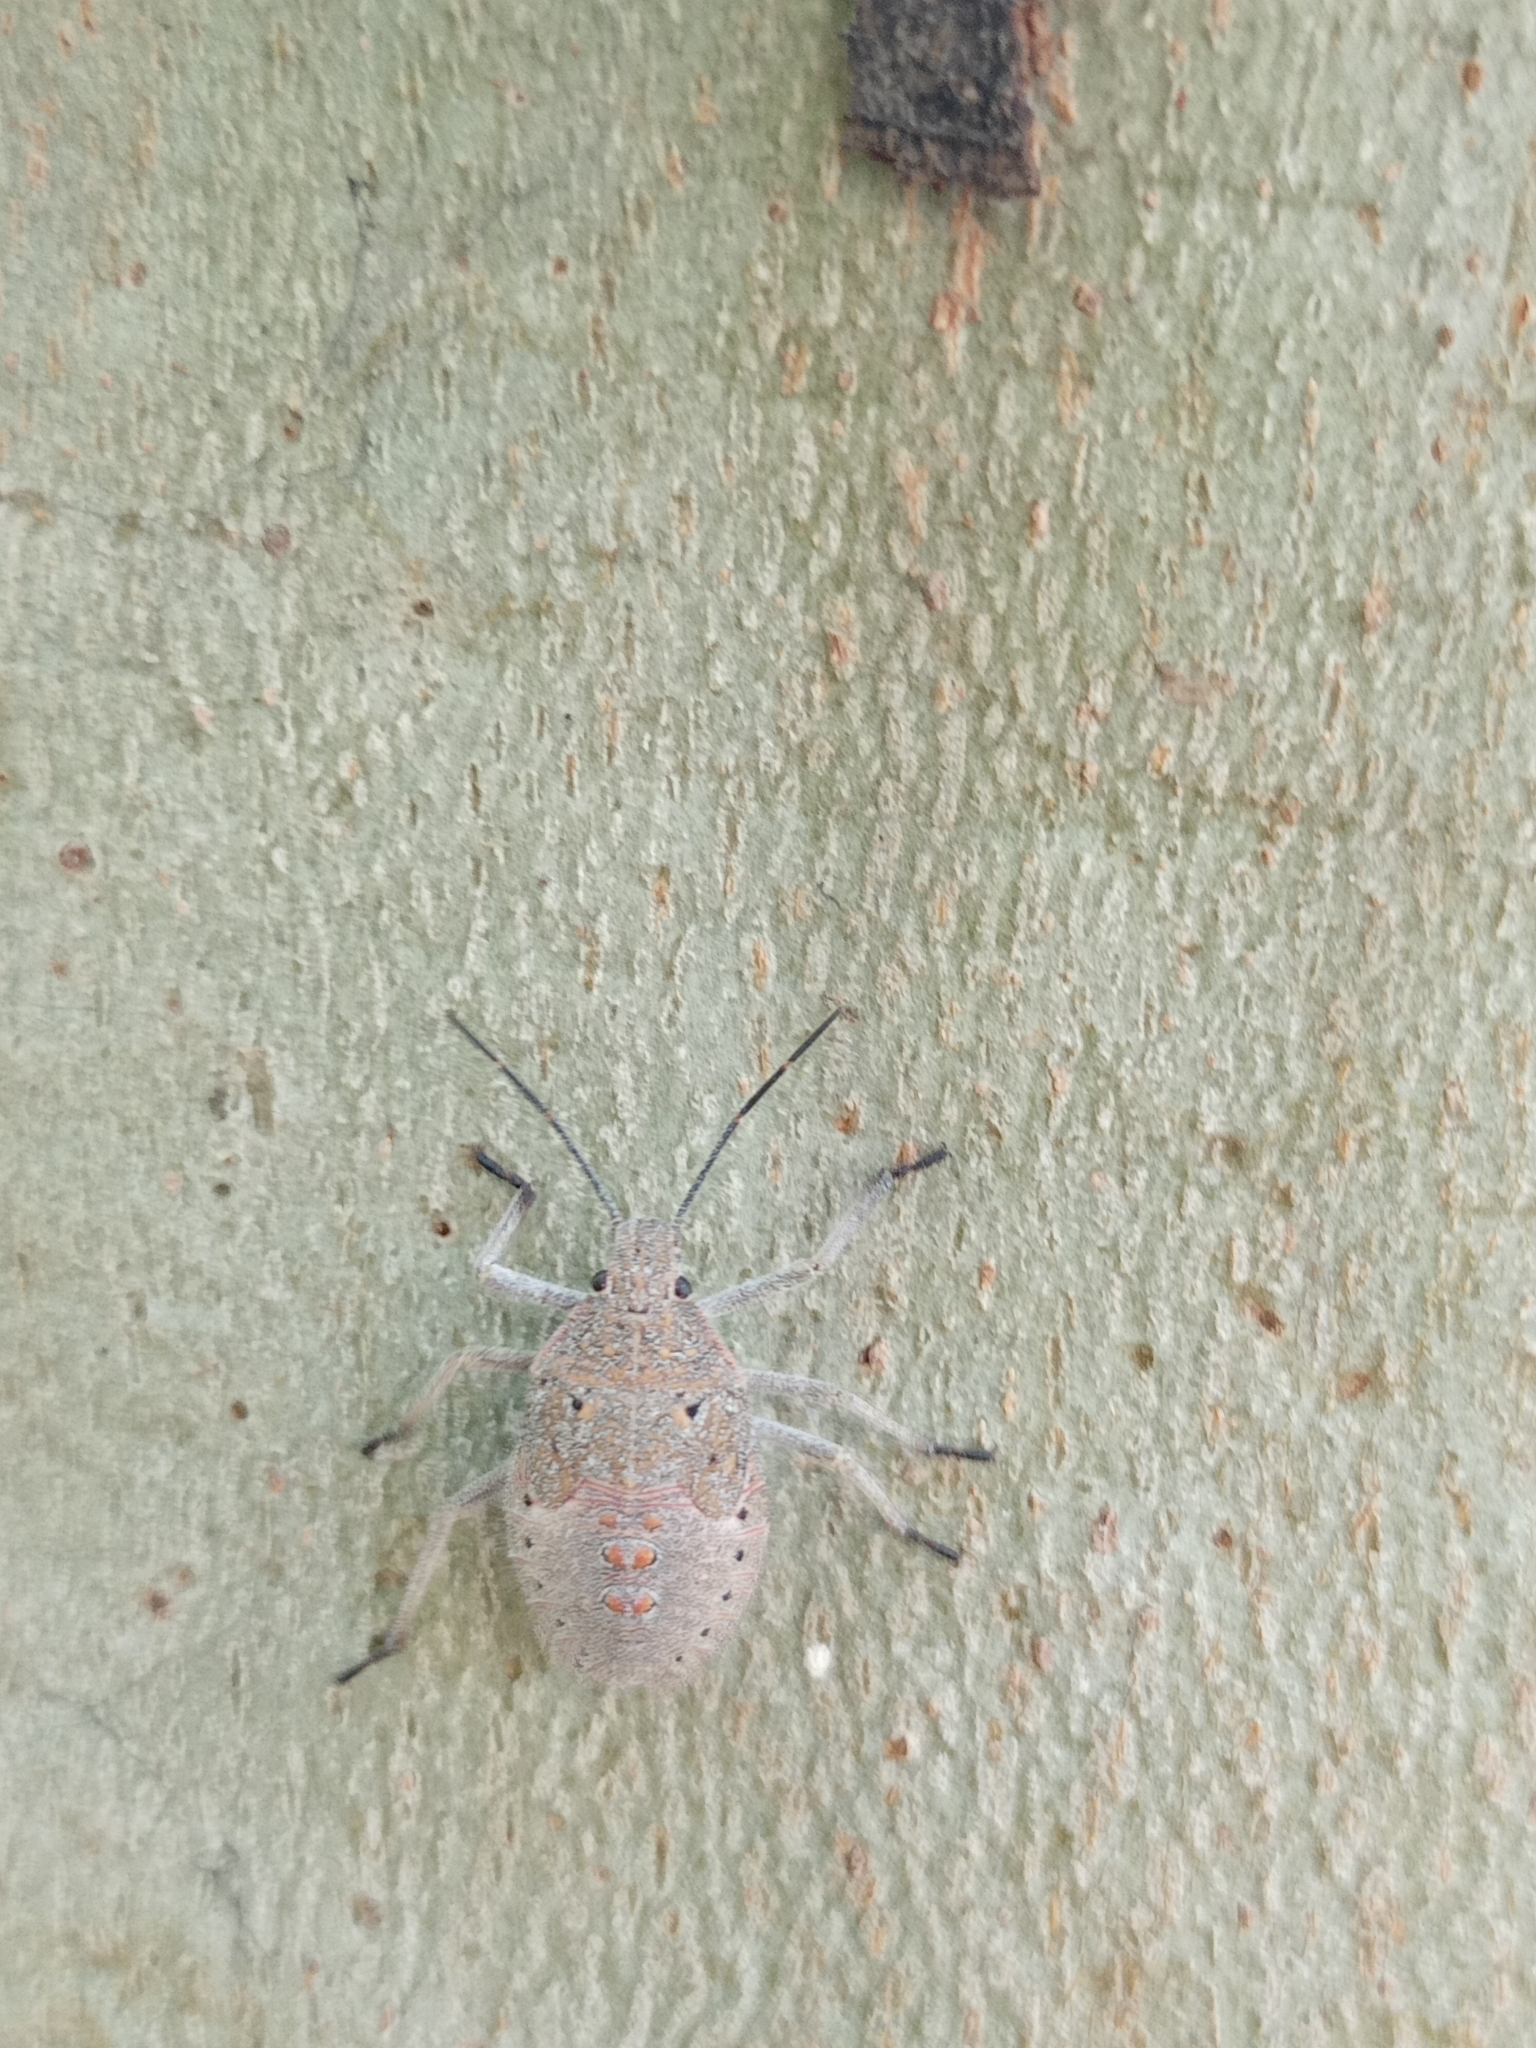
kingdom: Animalia
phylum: Arthropoda
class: Insecta
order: Hemiptera
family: Pentatomidae
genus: Apodiphus
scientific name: Apodiphus
